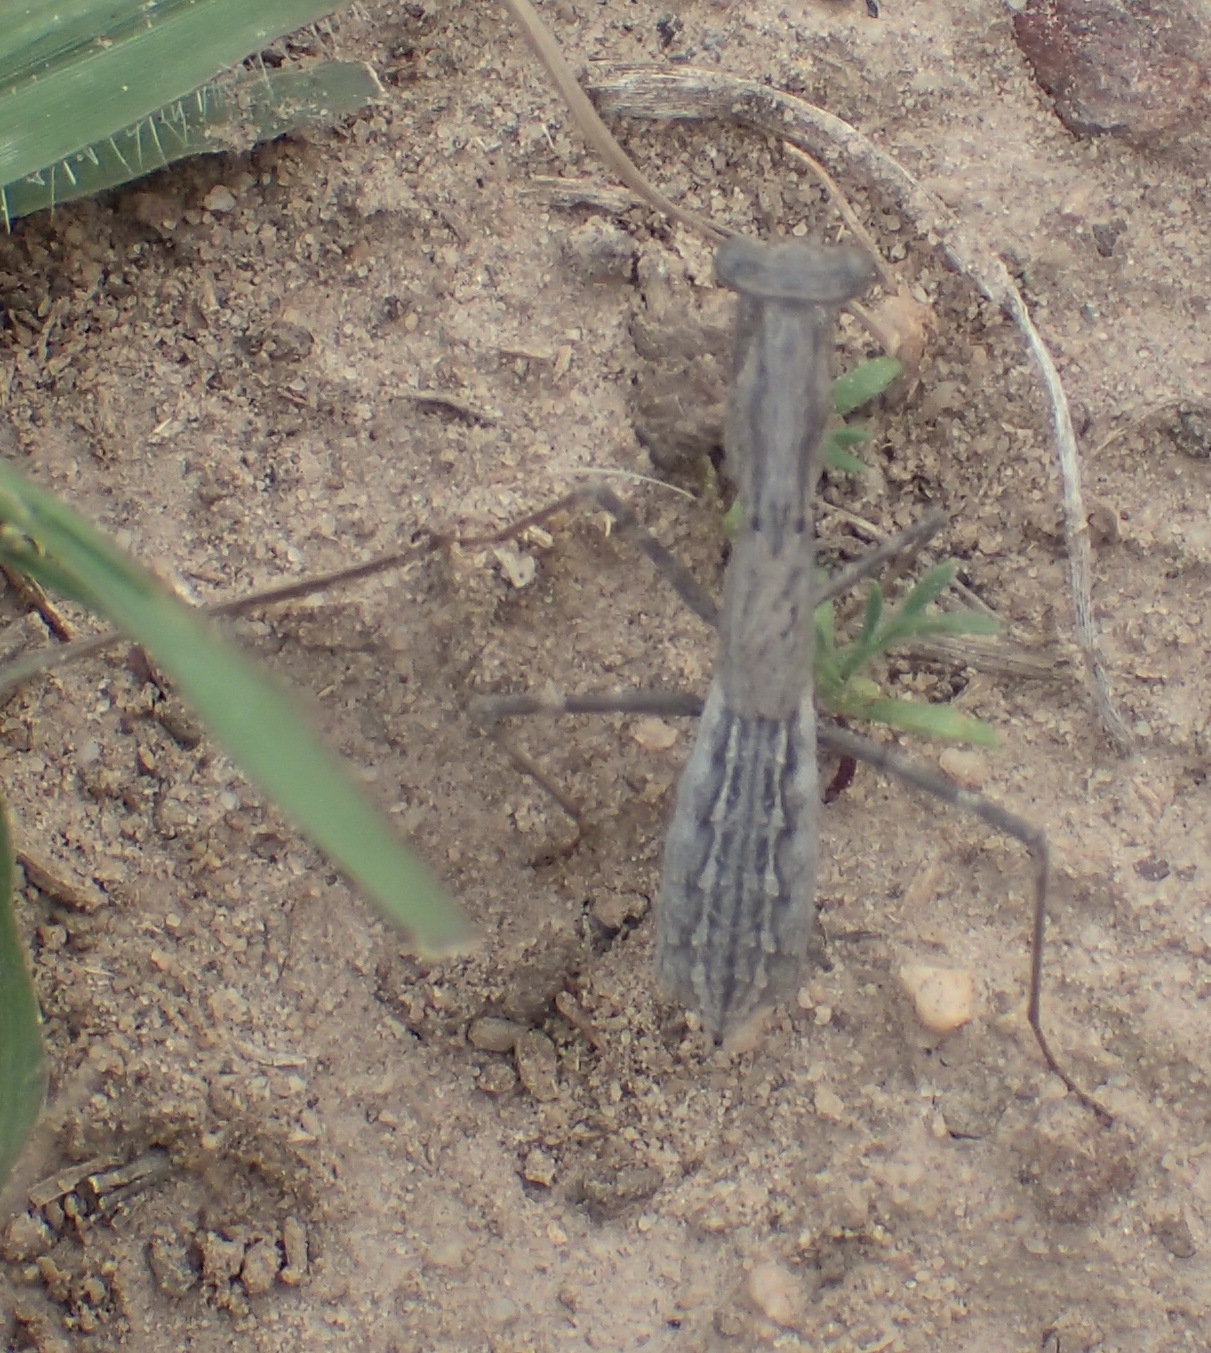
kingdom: Animalia
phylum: Arthropoda
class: Insecta
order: Mantodea
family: Chroicopteridae
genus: Ligariella
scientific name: Ligariella gracilis
